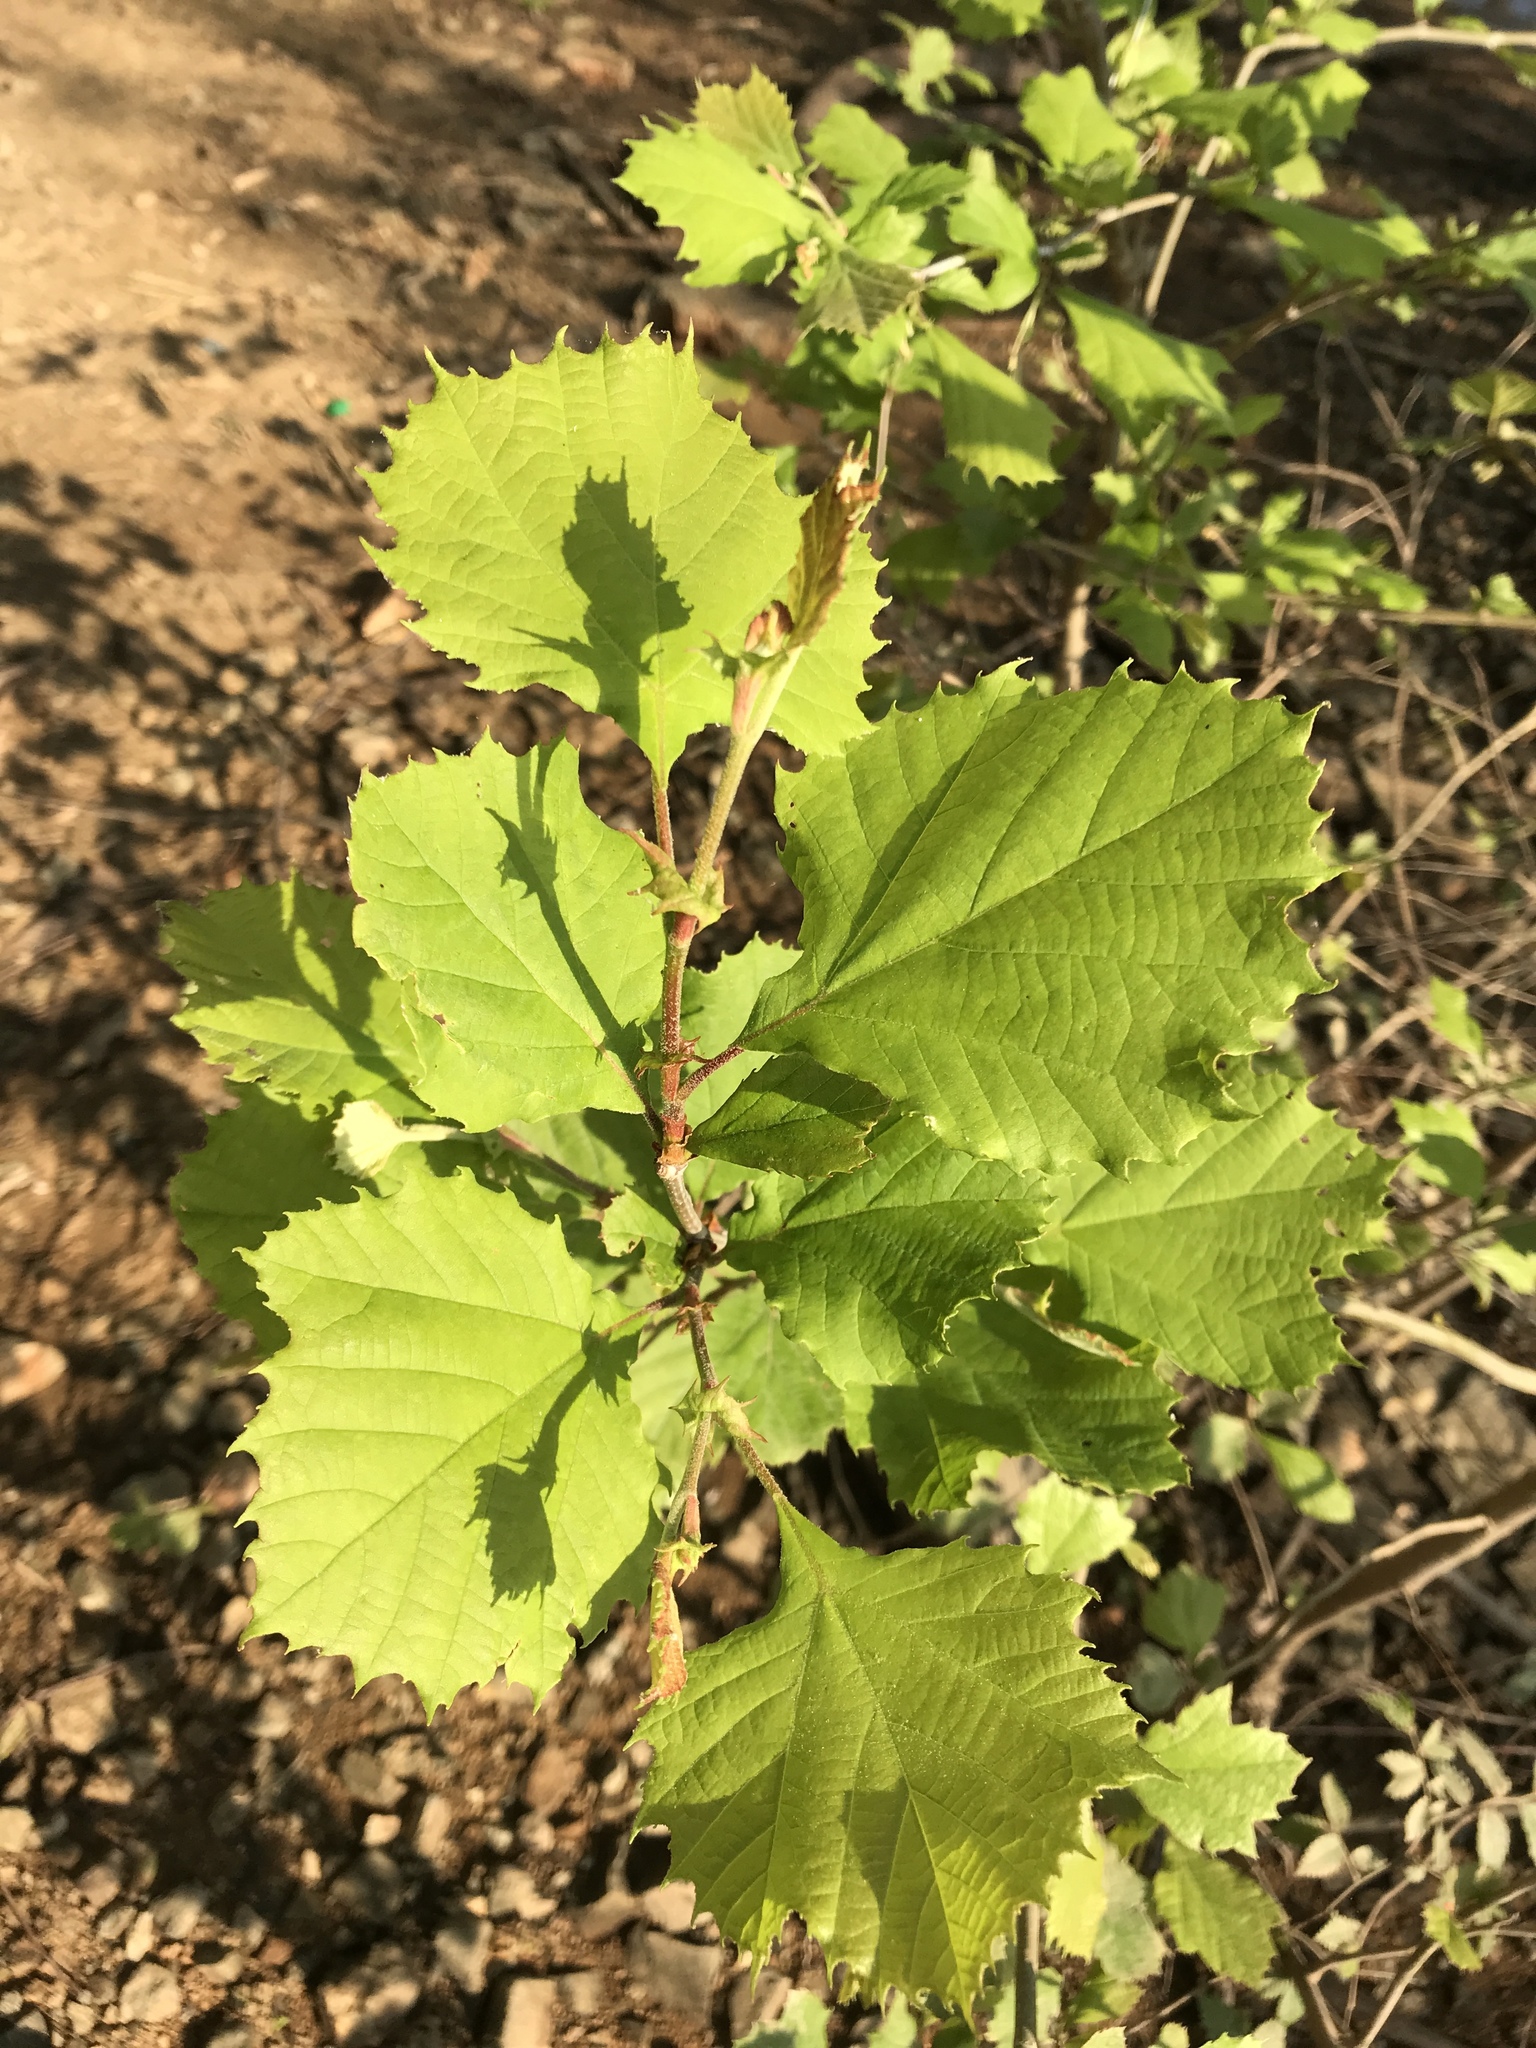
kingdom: Plantae
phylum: Tracheophyta
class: Magnoliopsida
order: Proteales
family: Platanaceae
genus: Platanus
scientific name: Platanus occidentalis
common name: American sycamore
